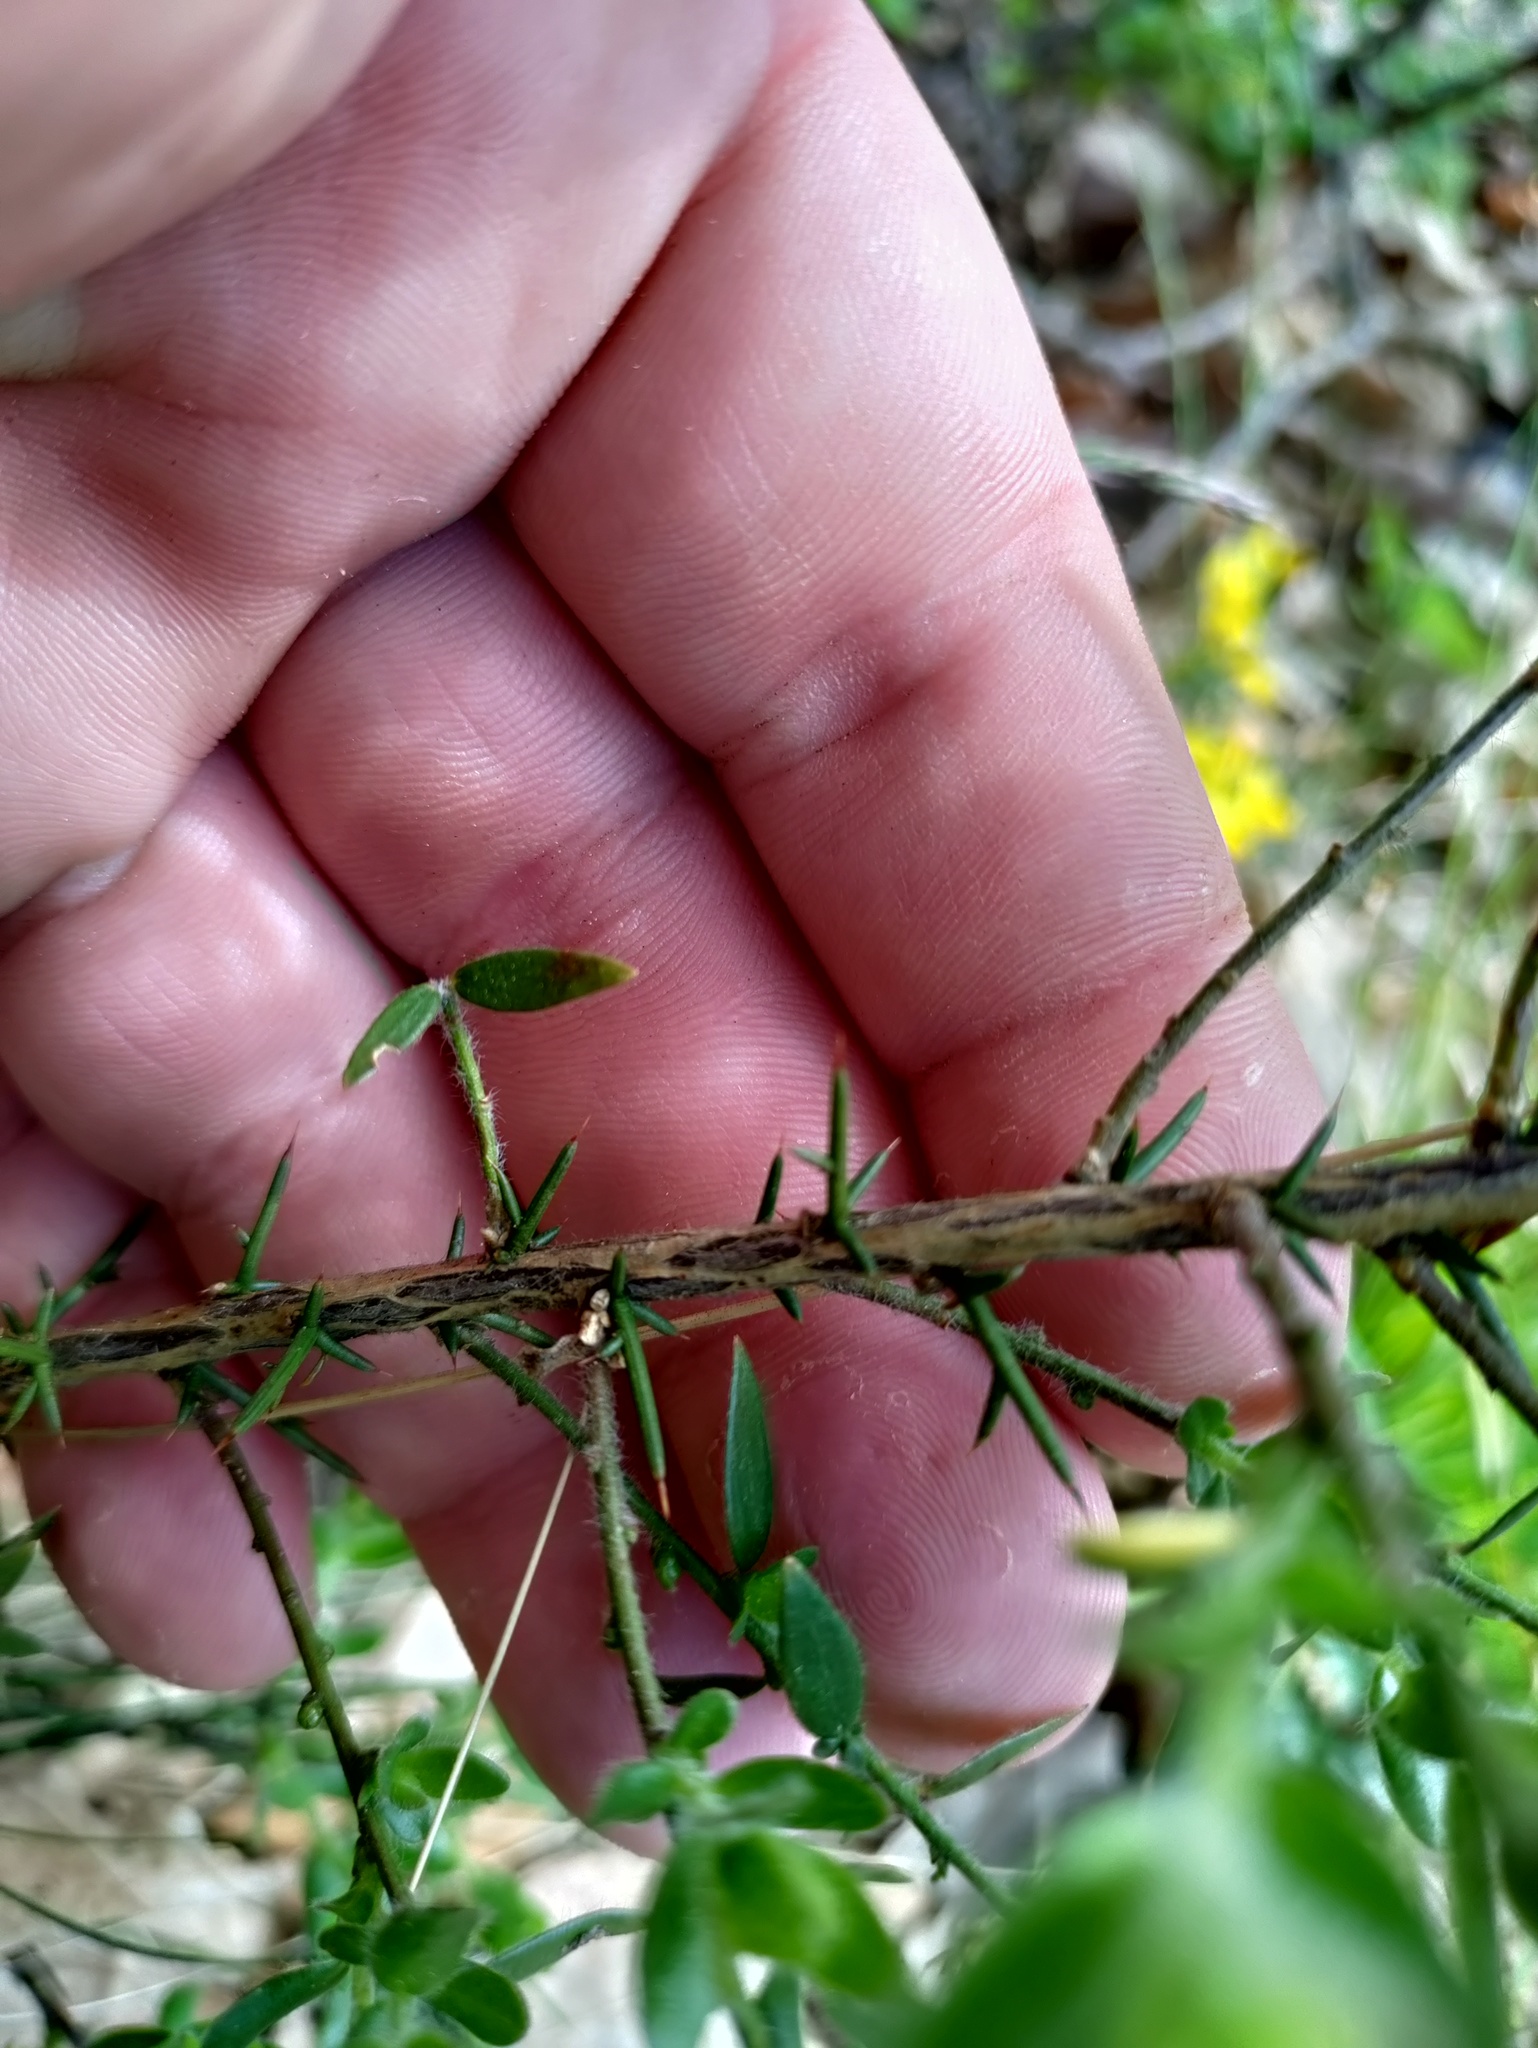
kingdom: Plantae
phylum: Tracheophyta
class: Magnoliopsida
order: Fabales
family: Fabaceae
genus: Genista
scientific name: Genista germanica
